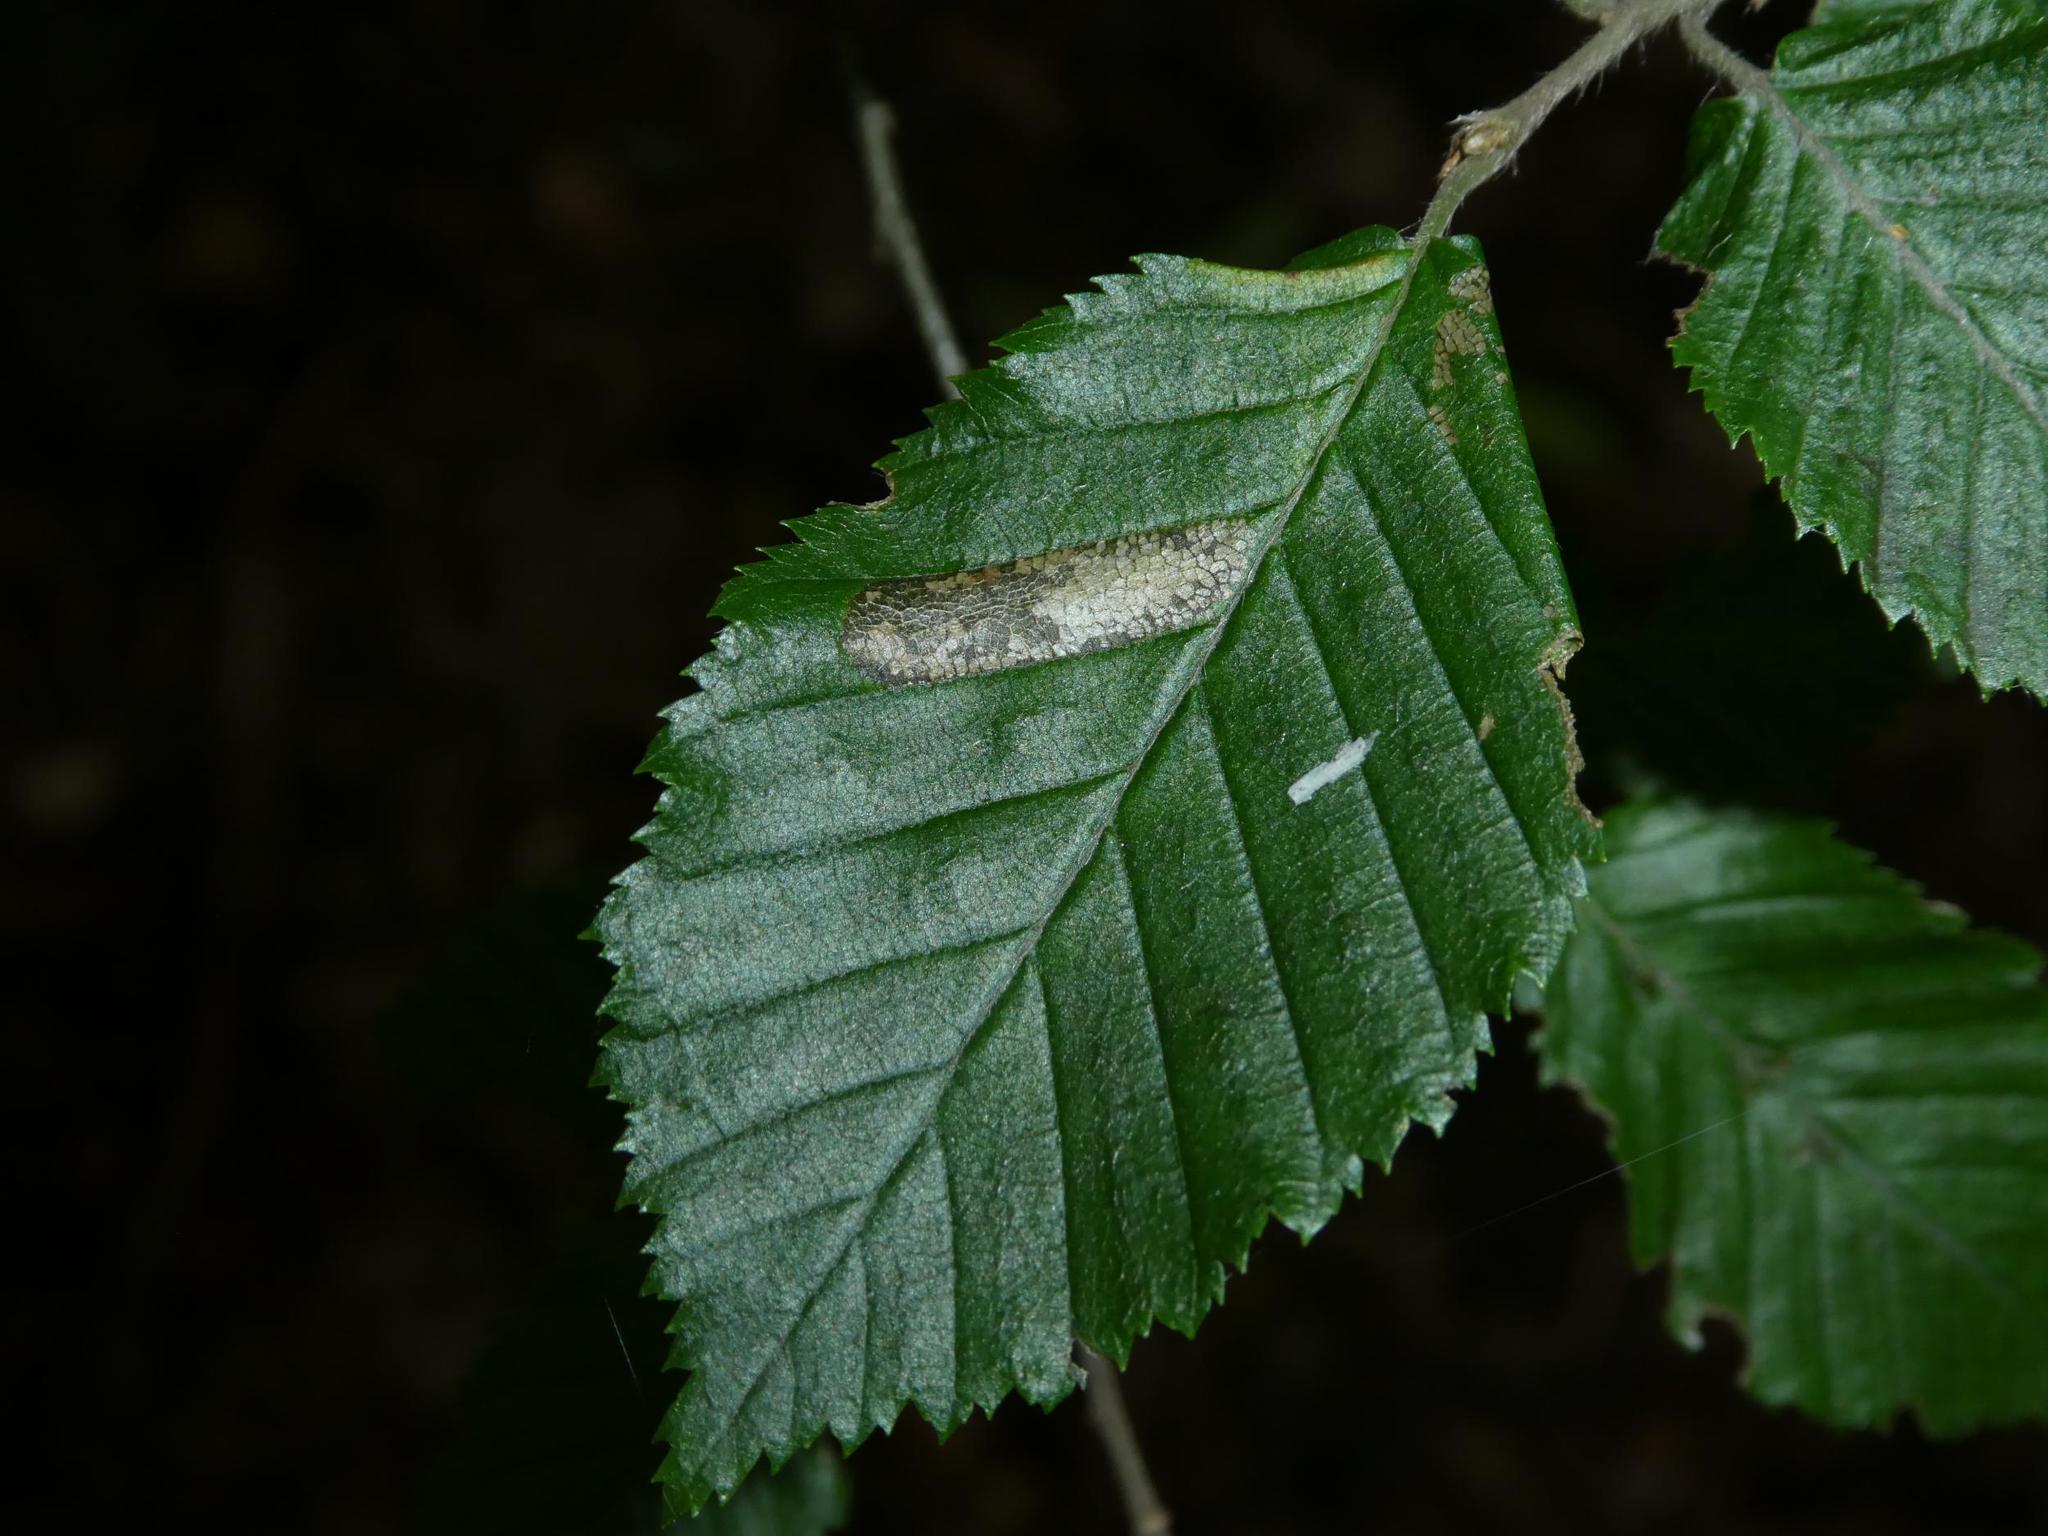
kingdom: Plantae
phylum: Tracheophyta
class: Magnoliopsida
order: Fagales
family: Betulaceae
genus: Carpinus
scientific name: Carpinus betulus
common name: Hornbeam
